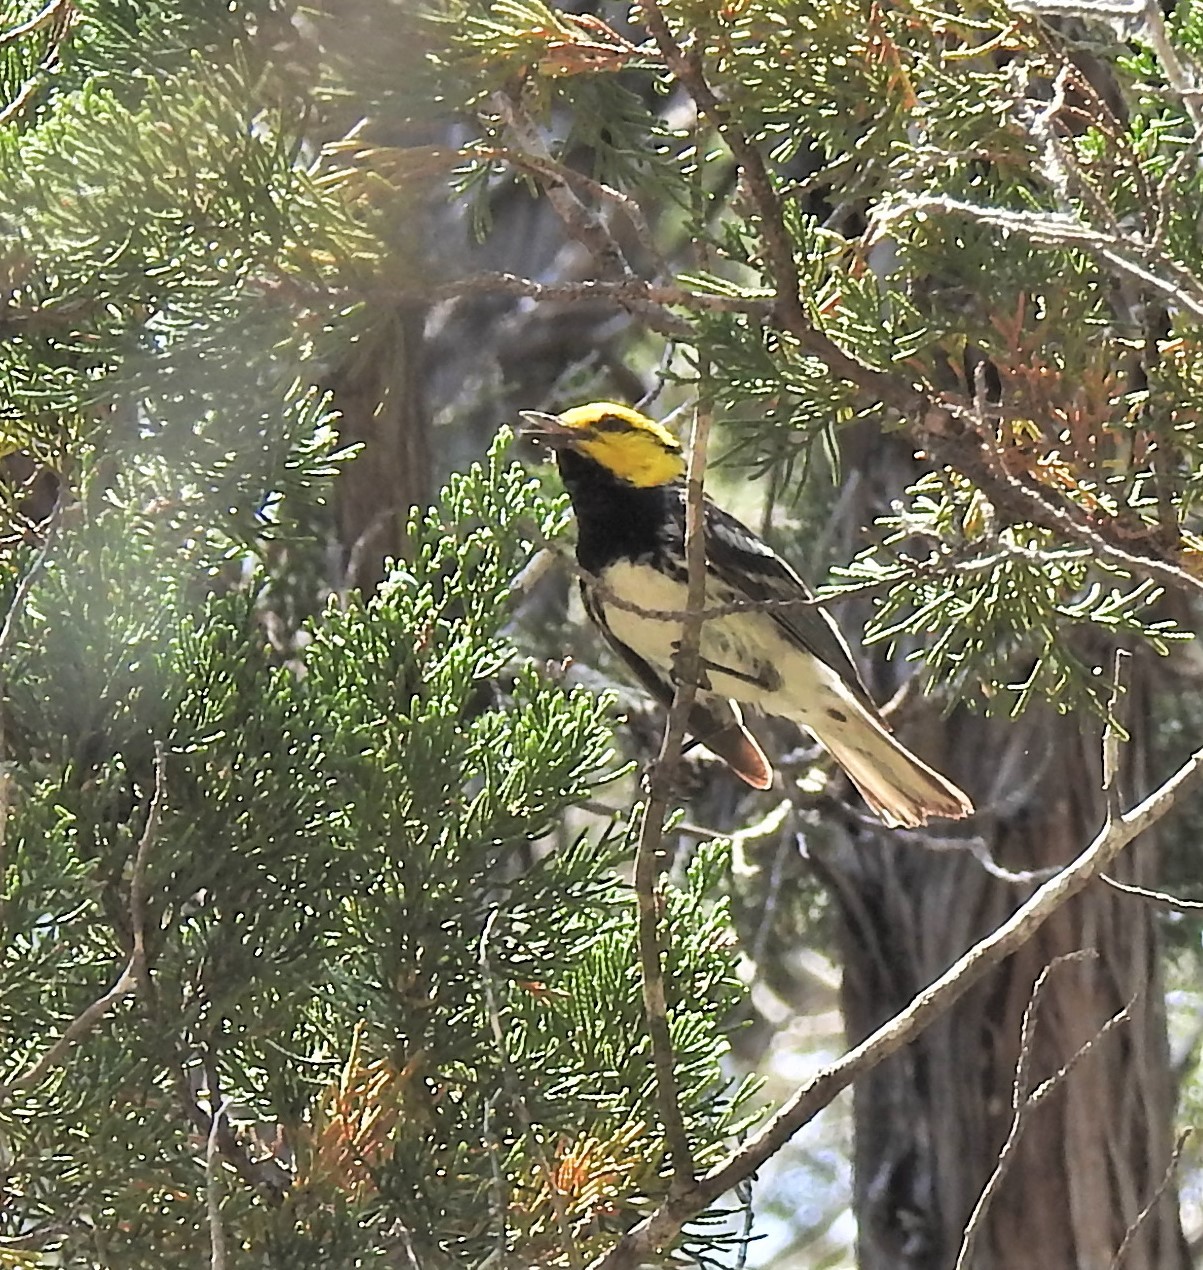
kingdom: Animalia
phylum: Chordata
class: Aves
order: Passeriformes
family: Parulidae
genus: Setophaga
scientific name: Setophaga chrysoparia
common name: Golden-cheeked warbler
